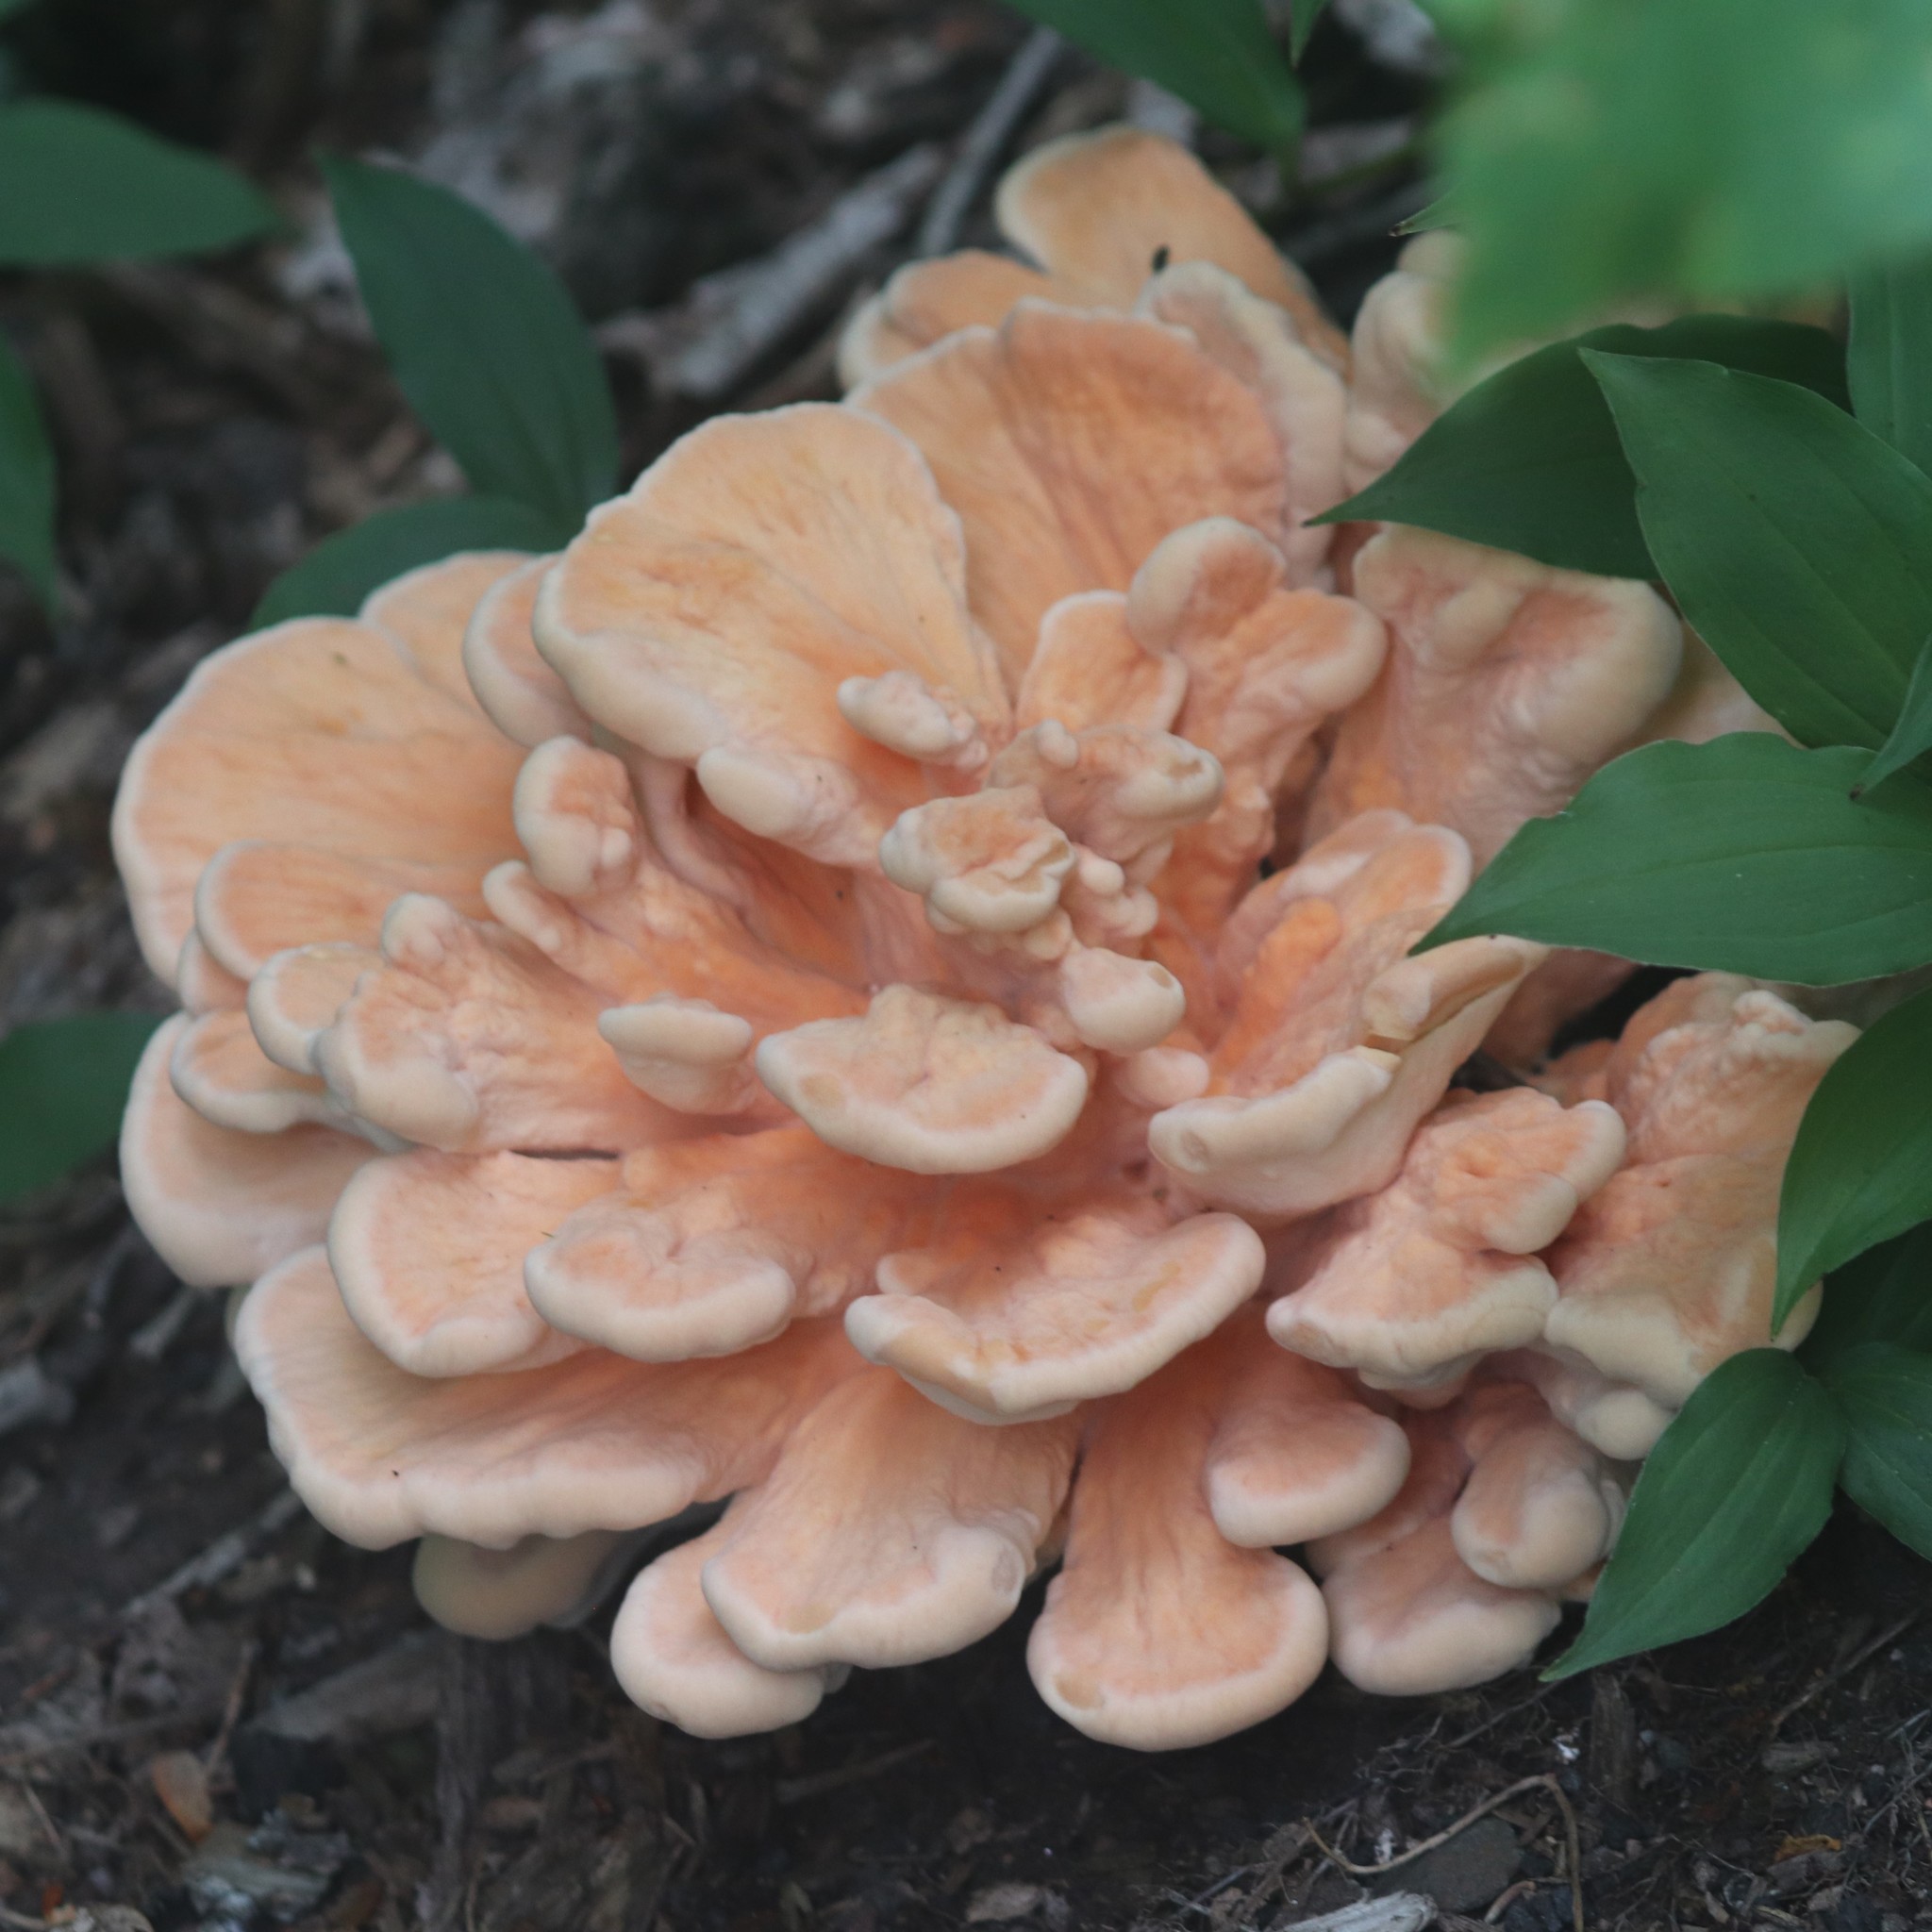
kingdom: Fungi
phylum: Basidiomycota
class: Agaricomycetes
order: Polyporales
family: Laetiporaceae
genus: Laetiporus
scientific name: Laetiporus sulphureus
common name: Chicken of the woods
